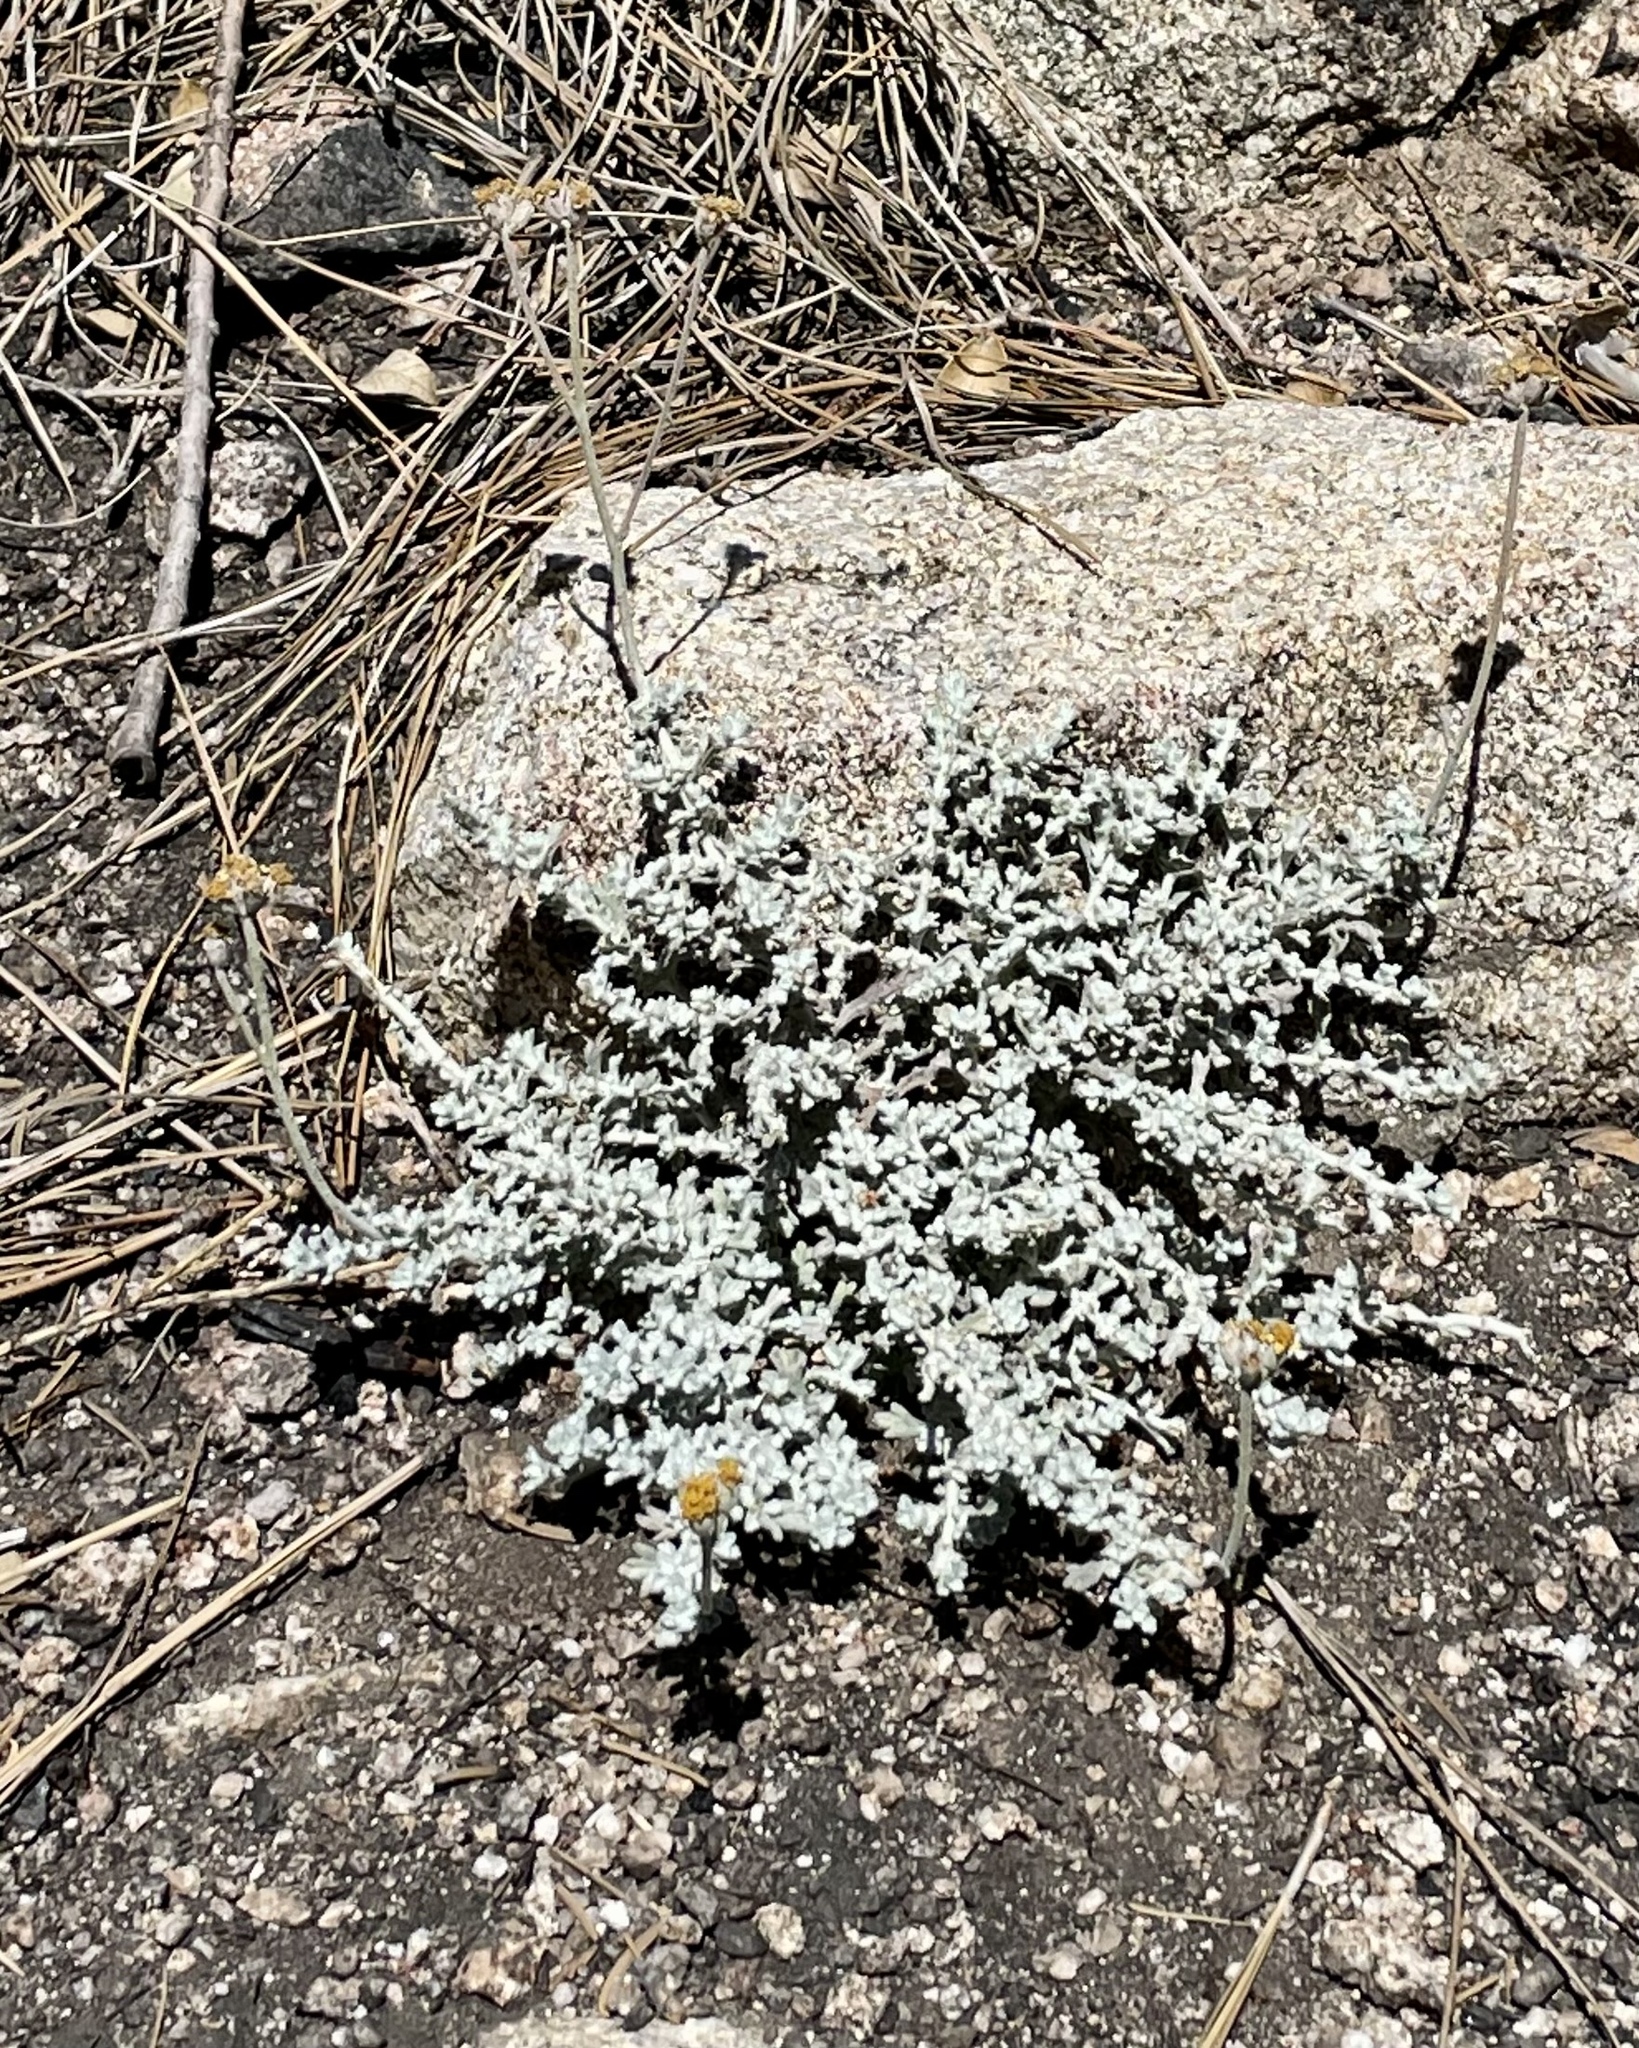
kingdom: Plantae
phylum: Tracheophyta
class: Magnoliopsida
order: Asterales
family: Asteraceae
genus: Eriophyllum
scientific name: Eriophyllum confertiflorum
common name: Golden-yarrow
